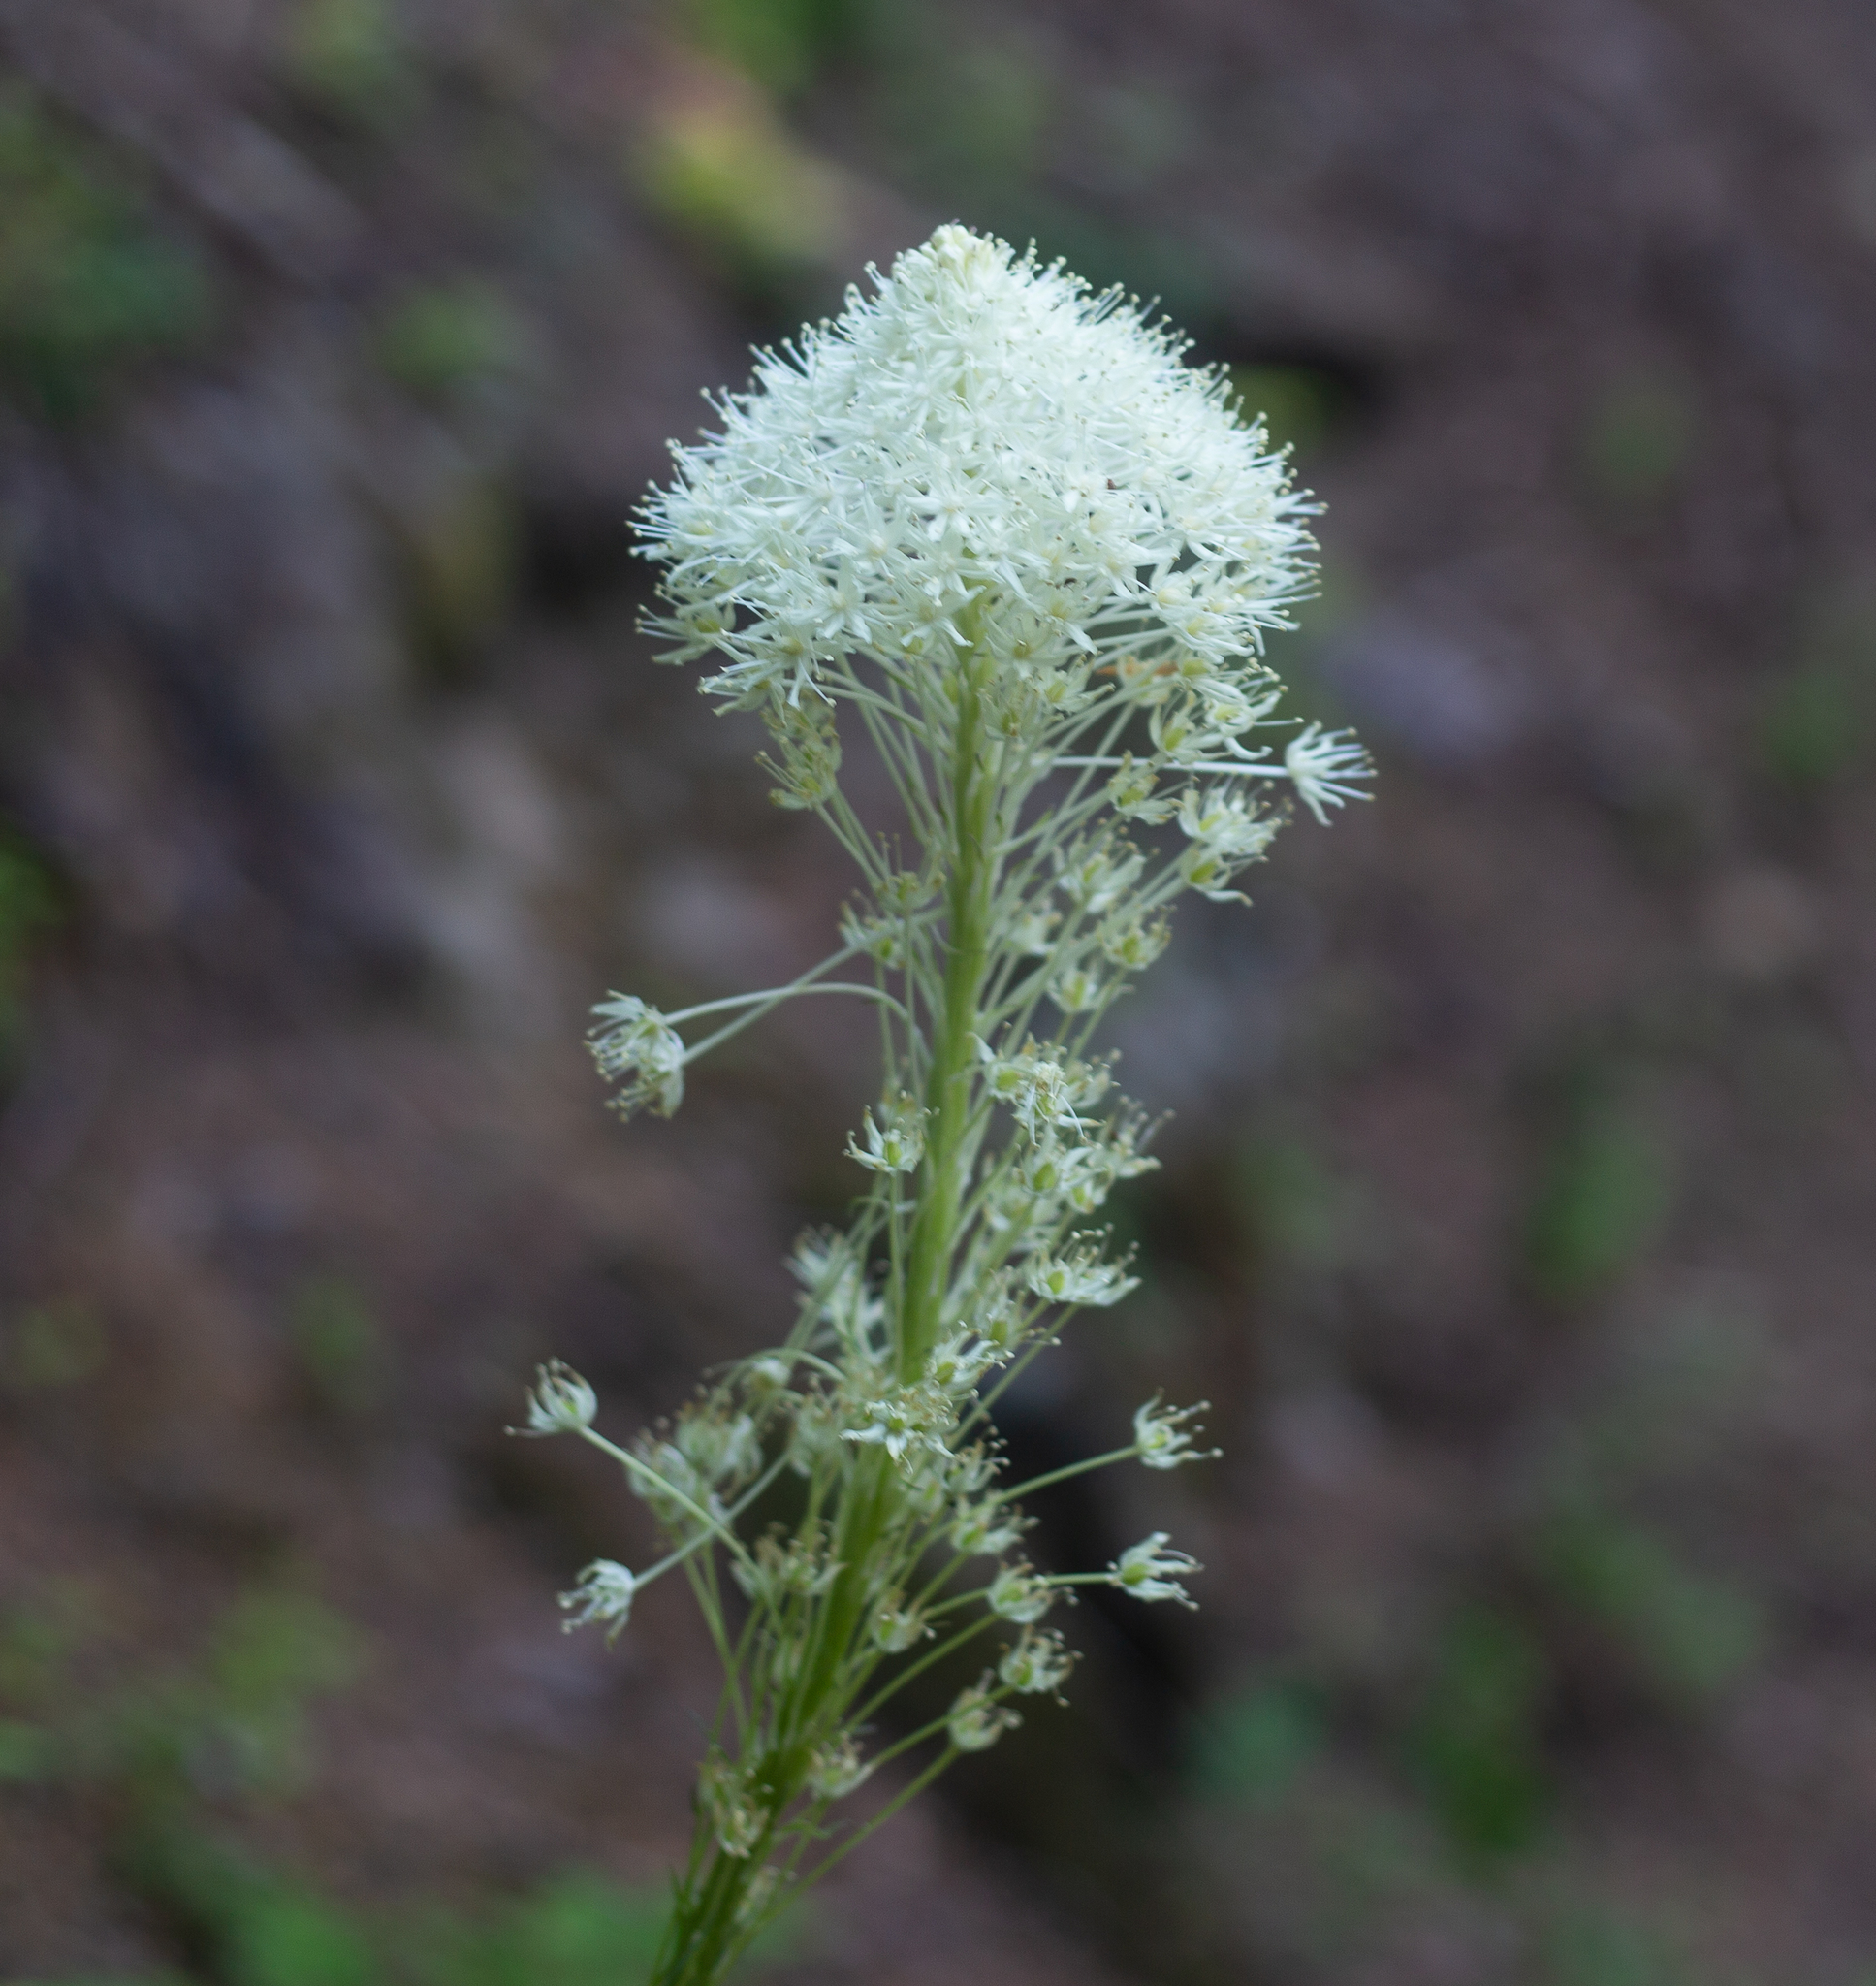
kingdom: Plantae
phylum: Tracheophyta
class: Liliopsida
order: Liliales
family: Melanthiaceae
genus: Xerophyllum
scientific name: Xerophyllum tenax
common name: Bear-grass
